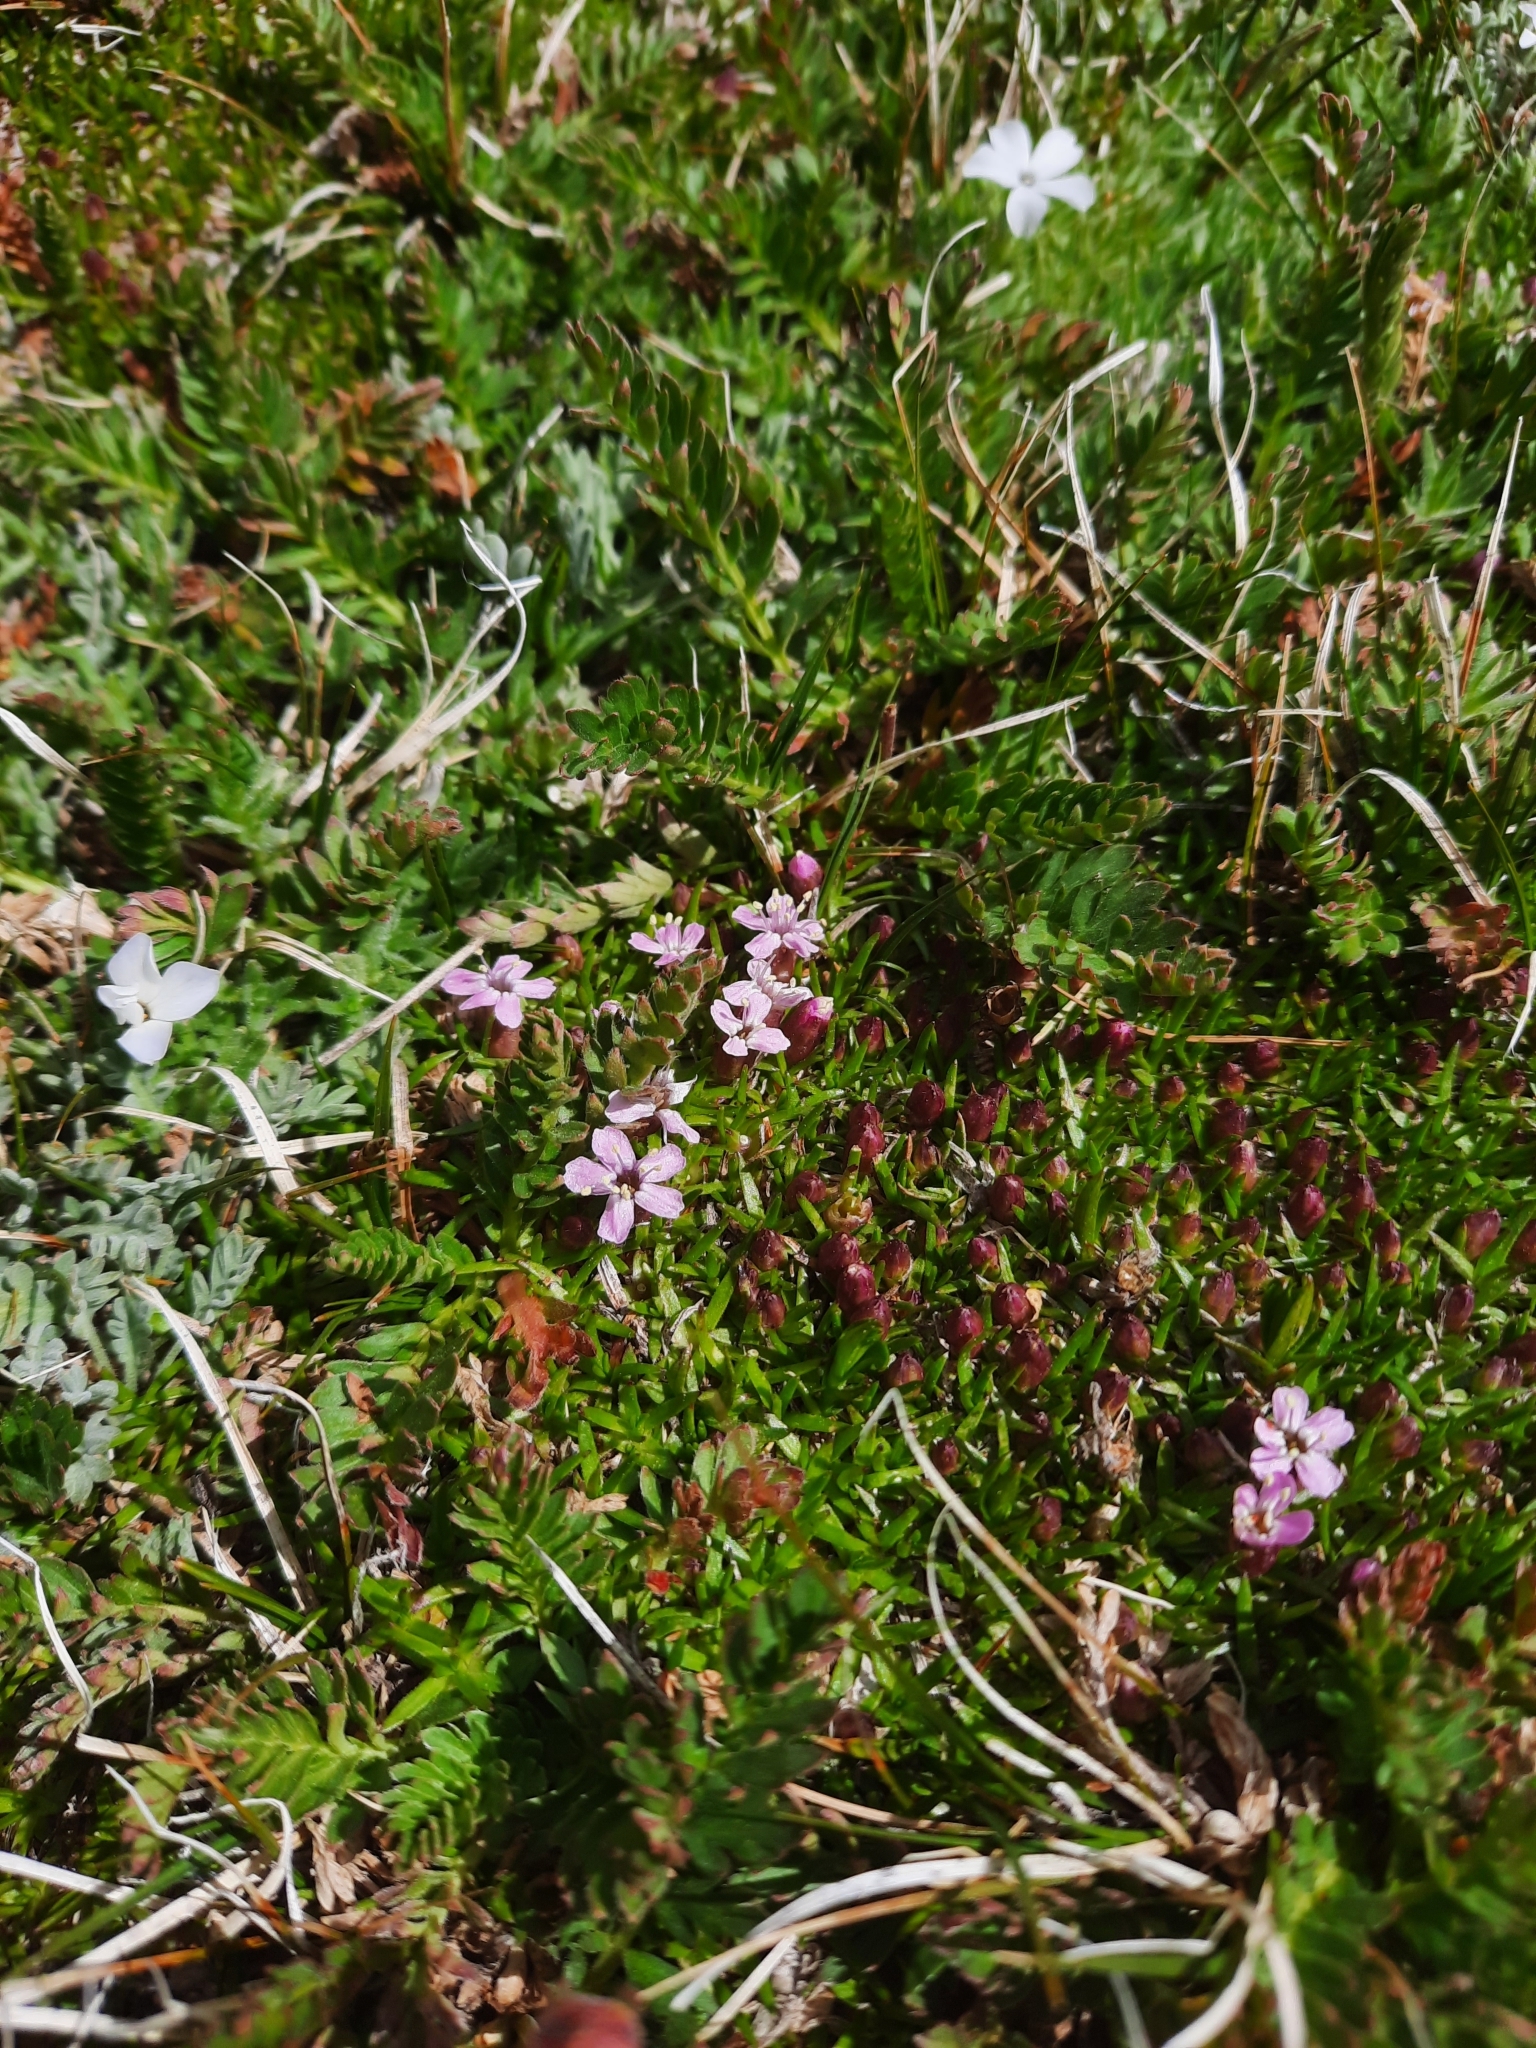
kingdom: Plantae
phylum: Tracheophyta
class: Magnoliopsida
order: Caryophyllales
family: Caryophyllaceae
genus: Silene
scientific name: Silene acaulis
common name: Moss campion
